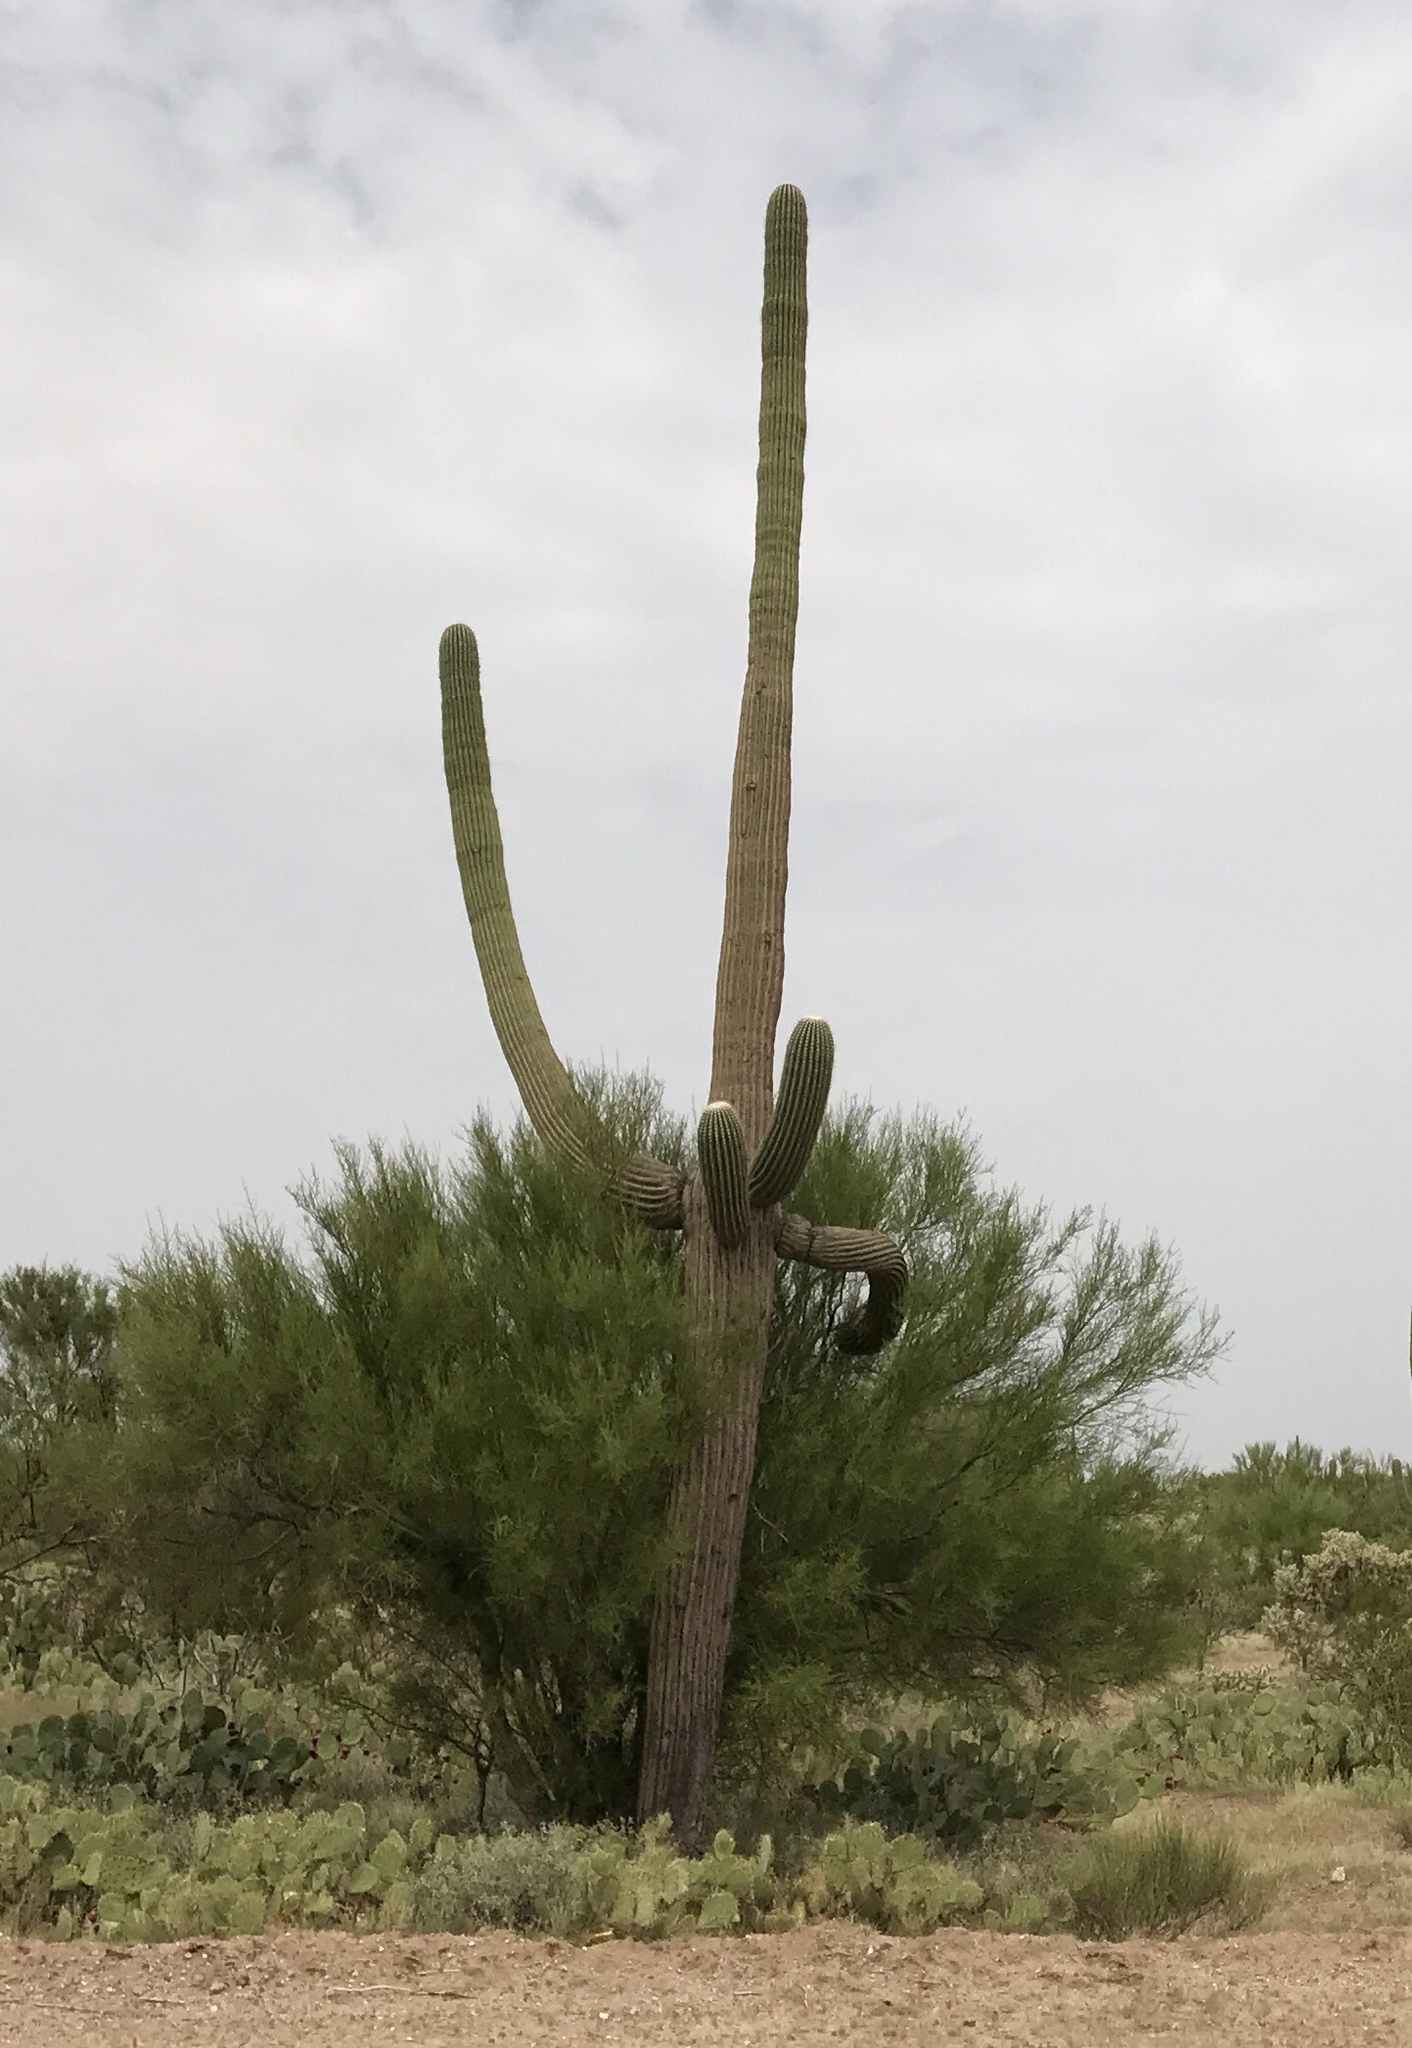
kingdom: Plantae
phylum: Tracheophyta
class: Magnoliopsida
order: Caryophyllales
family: Cactaceae
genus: Carnegiea
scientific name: Carnegiea gigantea
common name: Saguaro
